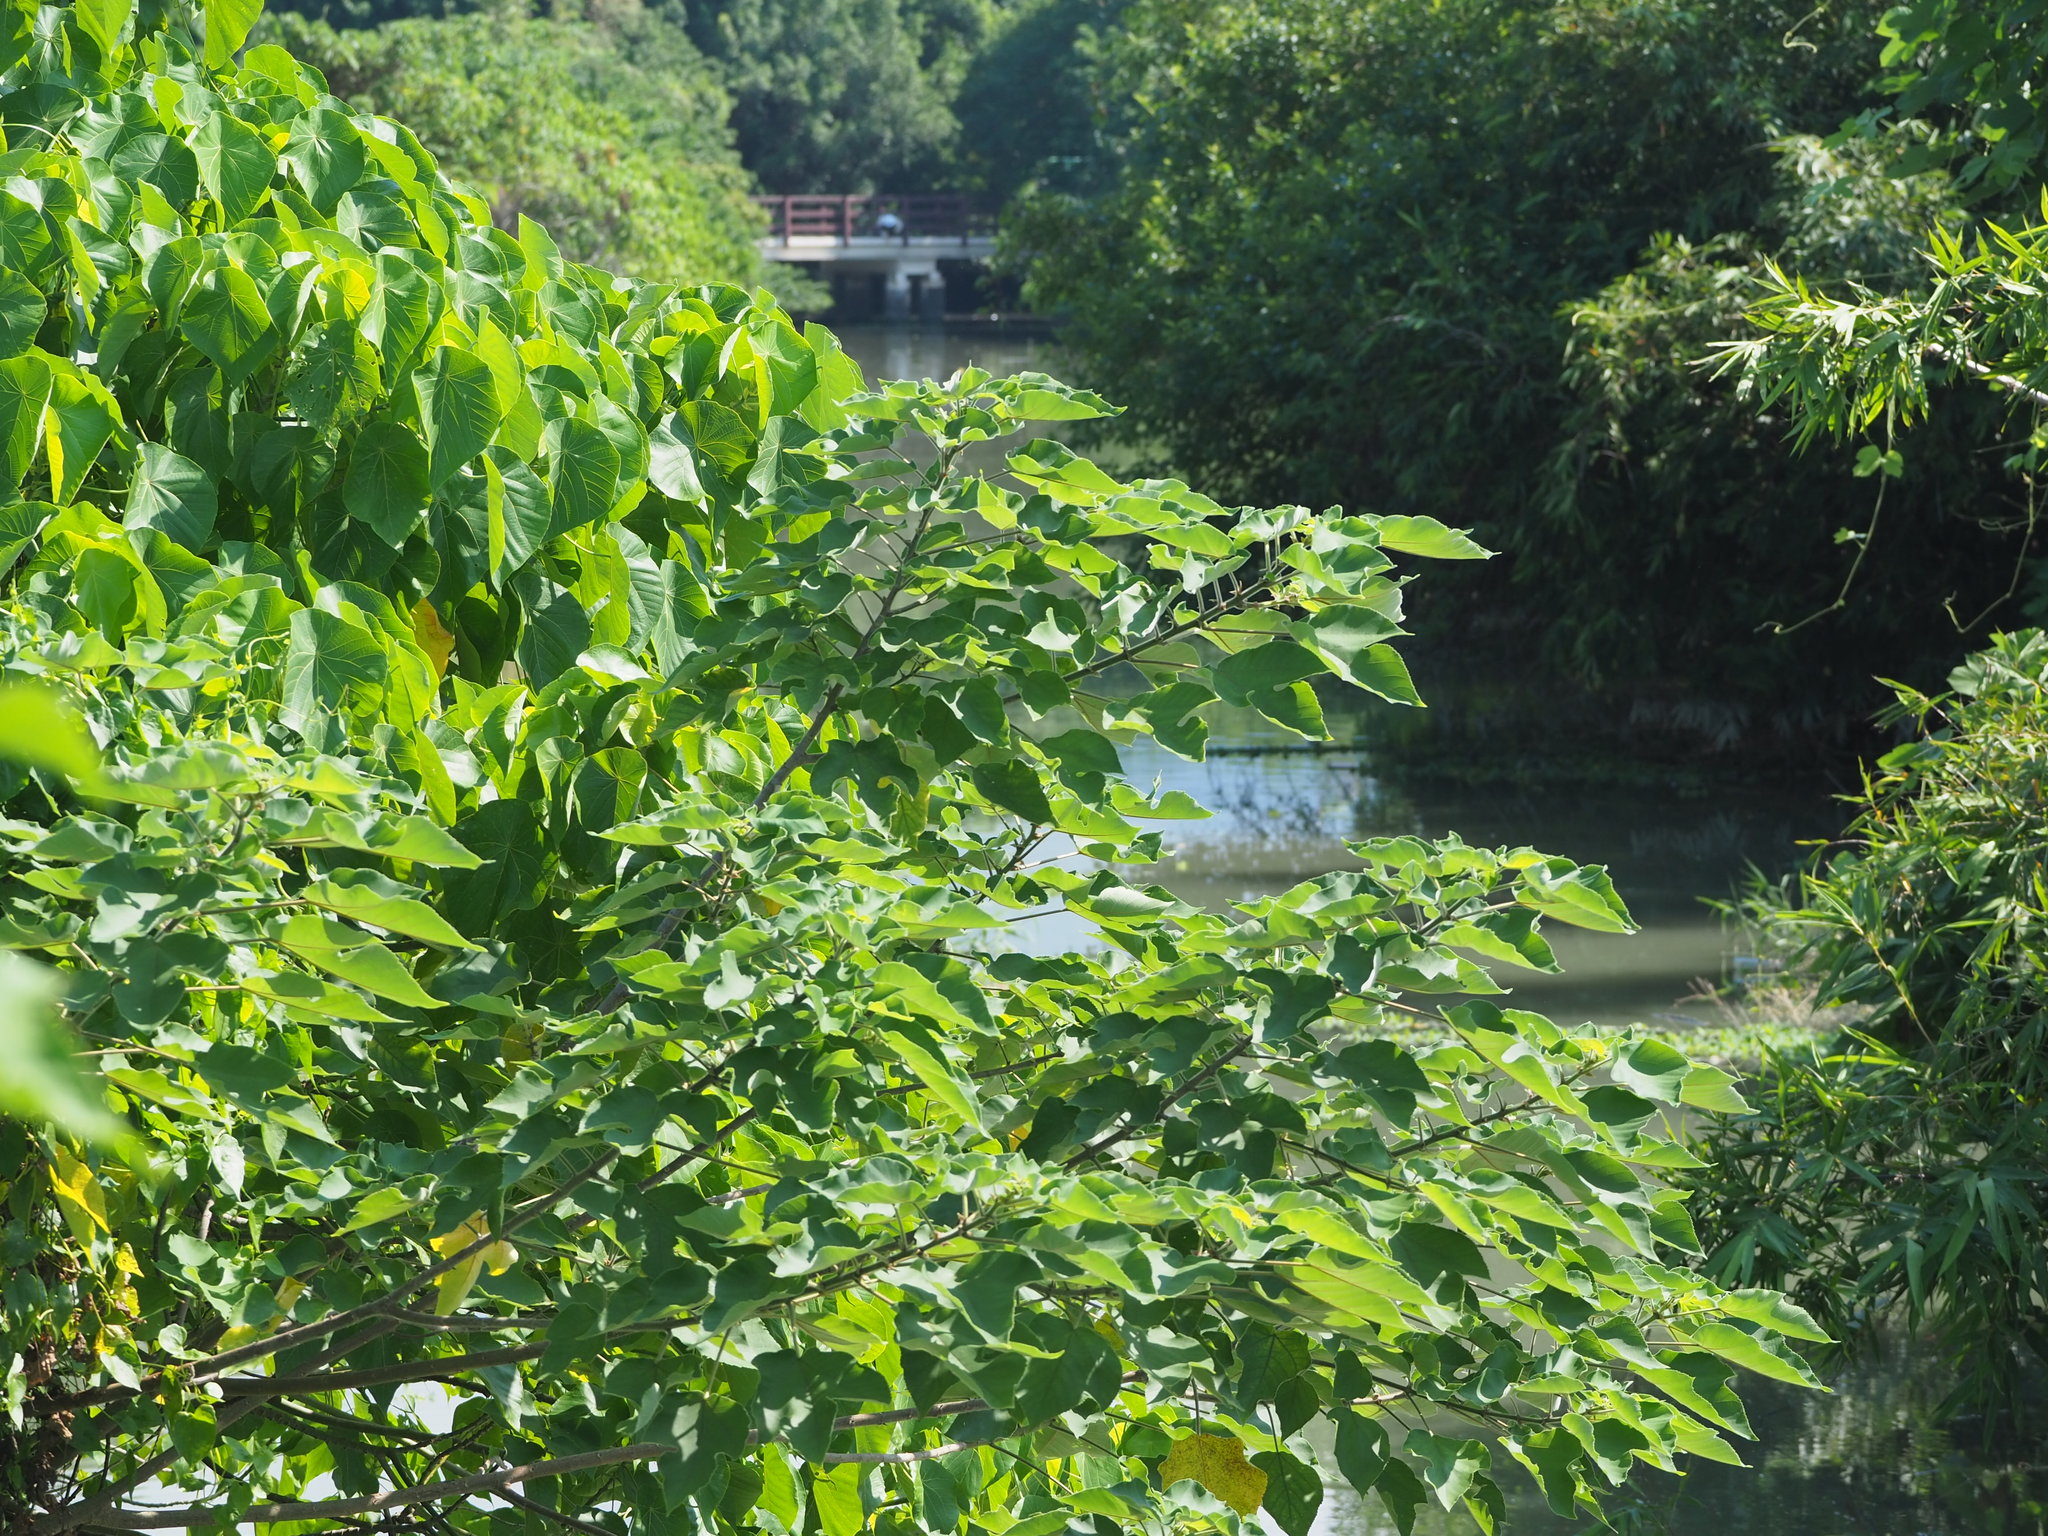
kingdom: Plantae
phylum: Tracheophyta
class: Magnoliopsida
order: Rosales
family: Moraceae
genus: Broussonetia
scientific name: Broussonetia papyrifera
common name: Paper mulberry
